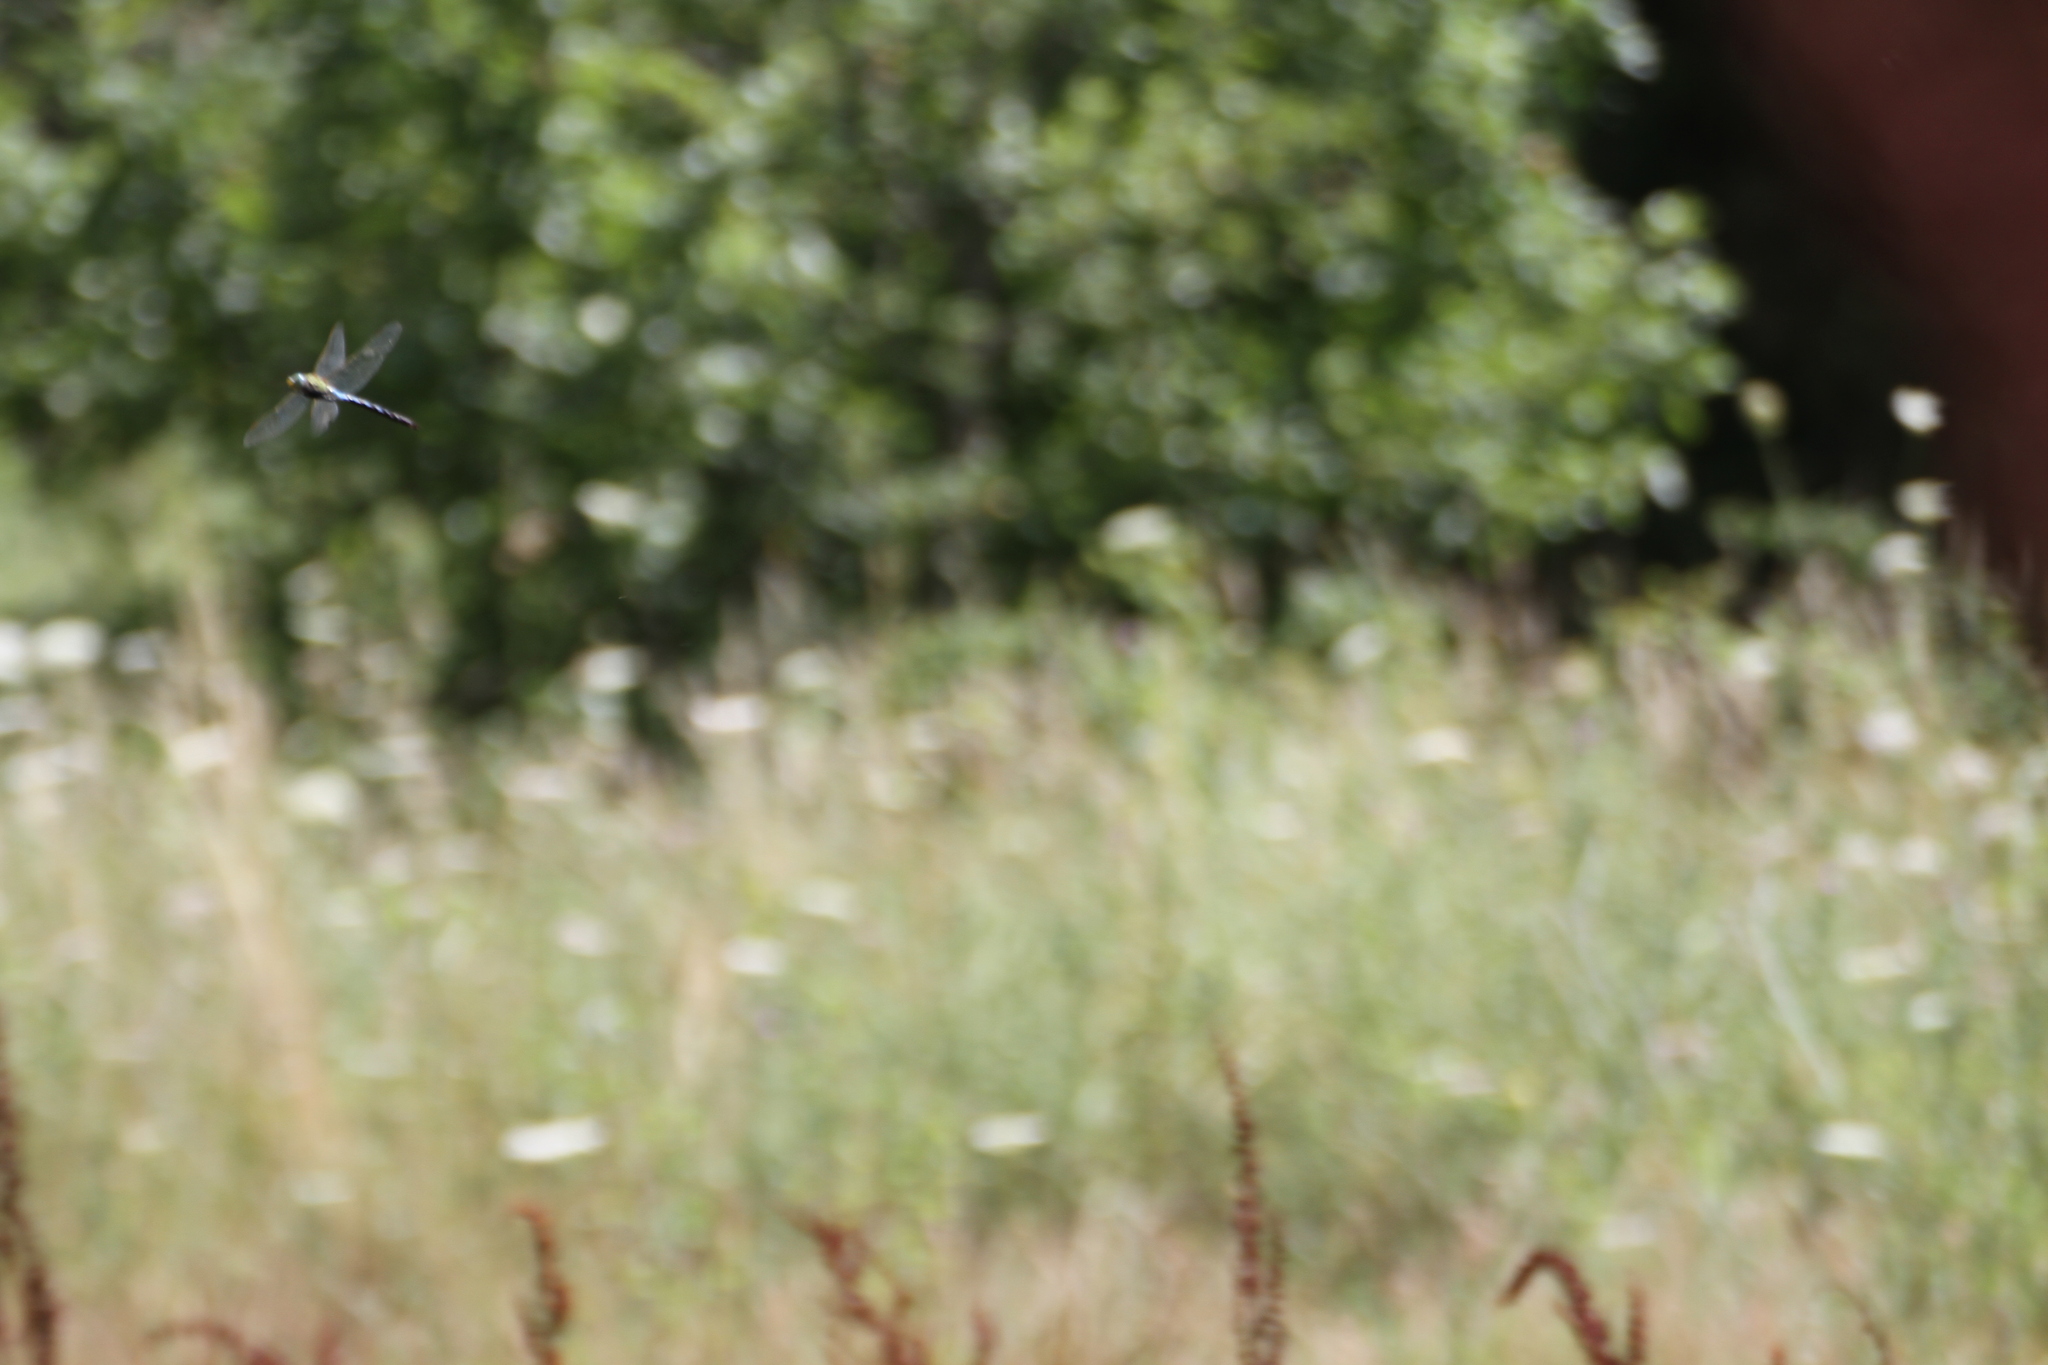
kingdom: Animalia
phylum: Arthropoda
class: Insecta
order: Odonata
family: Aeshnidae
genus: Anax
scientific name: Anax imperator
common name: Emperor dragonfly
